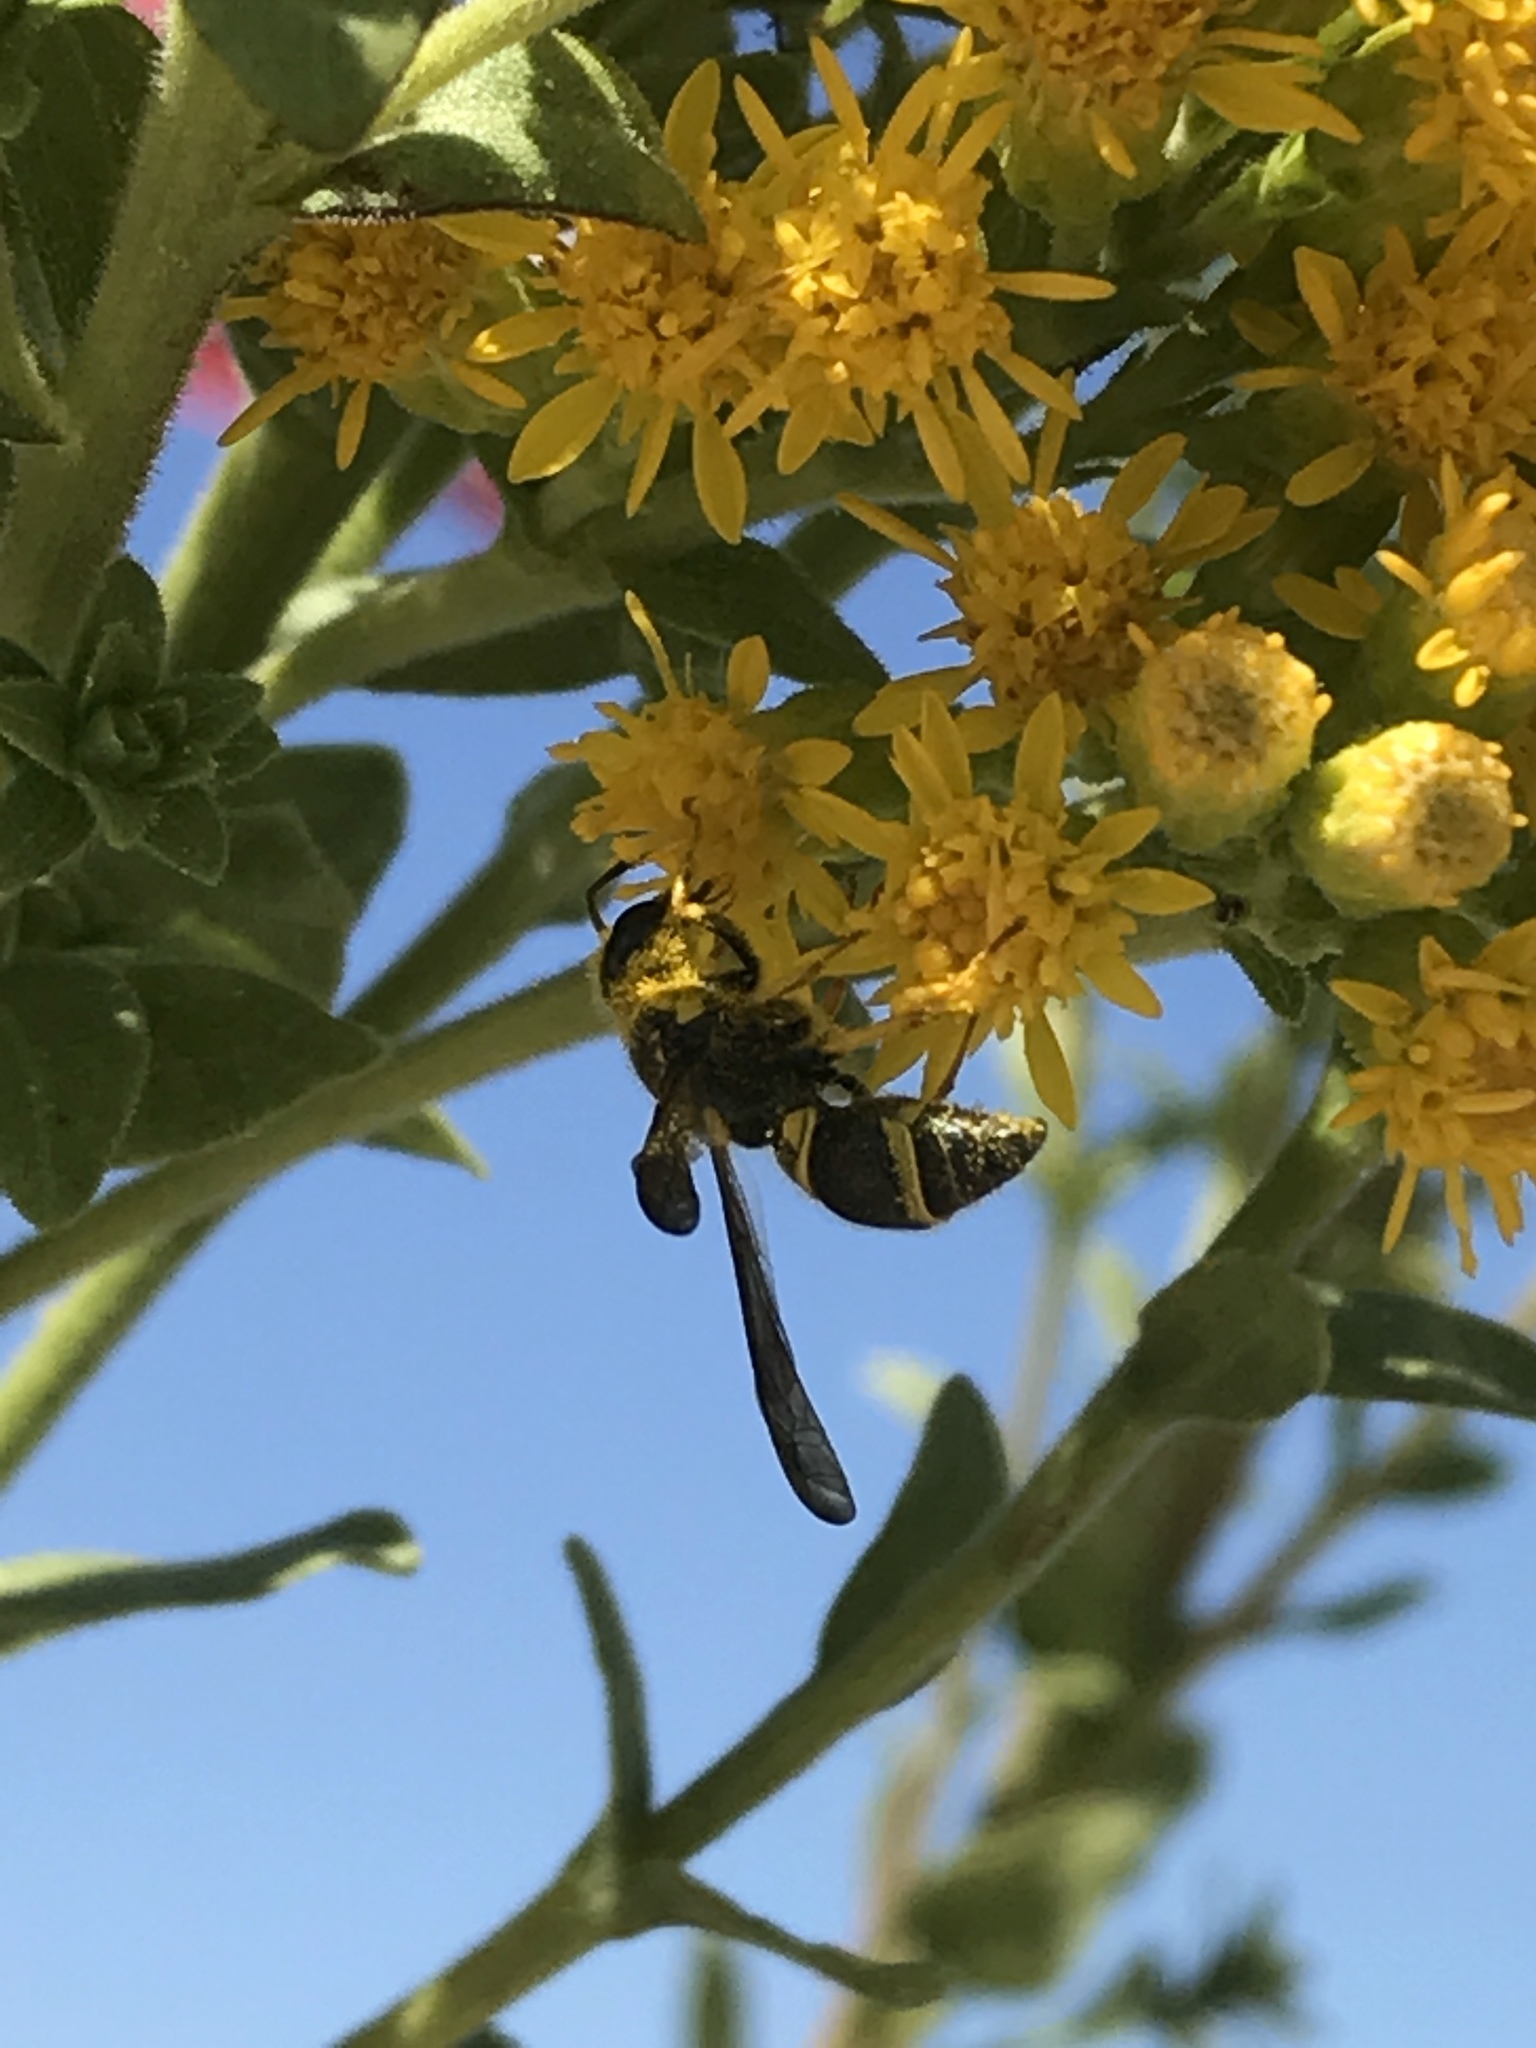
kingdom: Animalia
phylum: Arthropoda
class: Insecta
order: Hymenoptera
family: Vespidae
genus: Ancistrocerus
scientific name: Ancistrocerus campestris
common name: Smiling mason wasp
